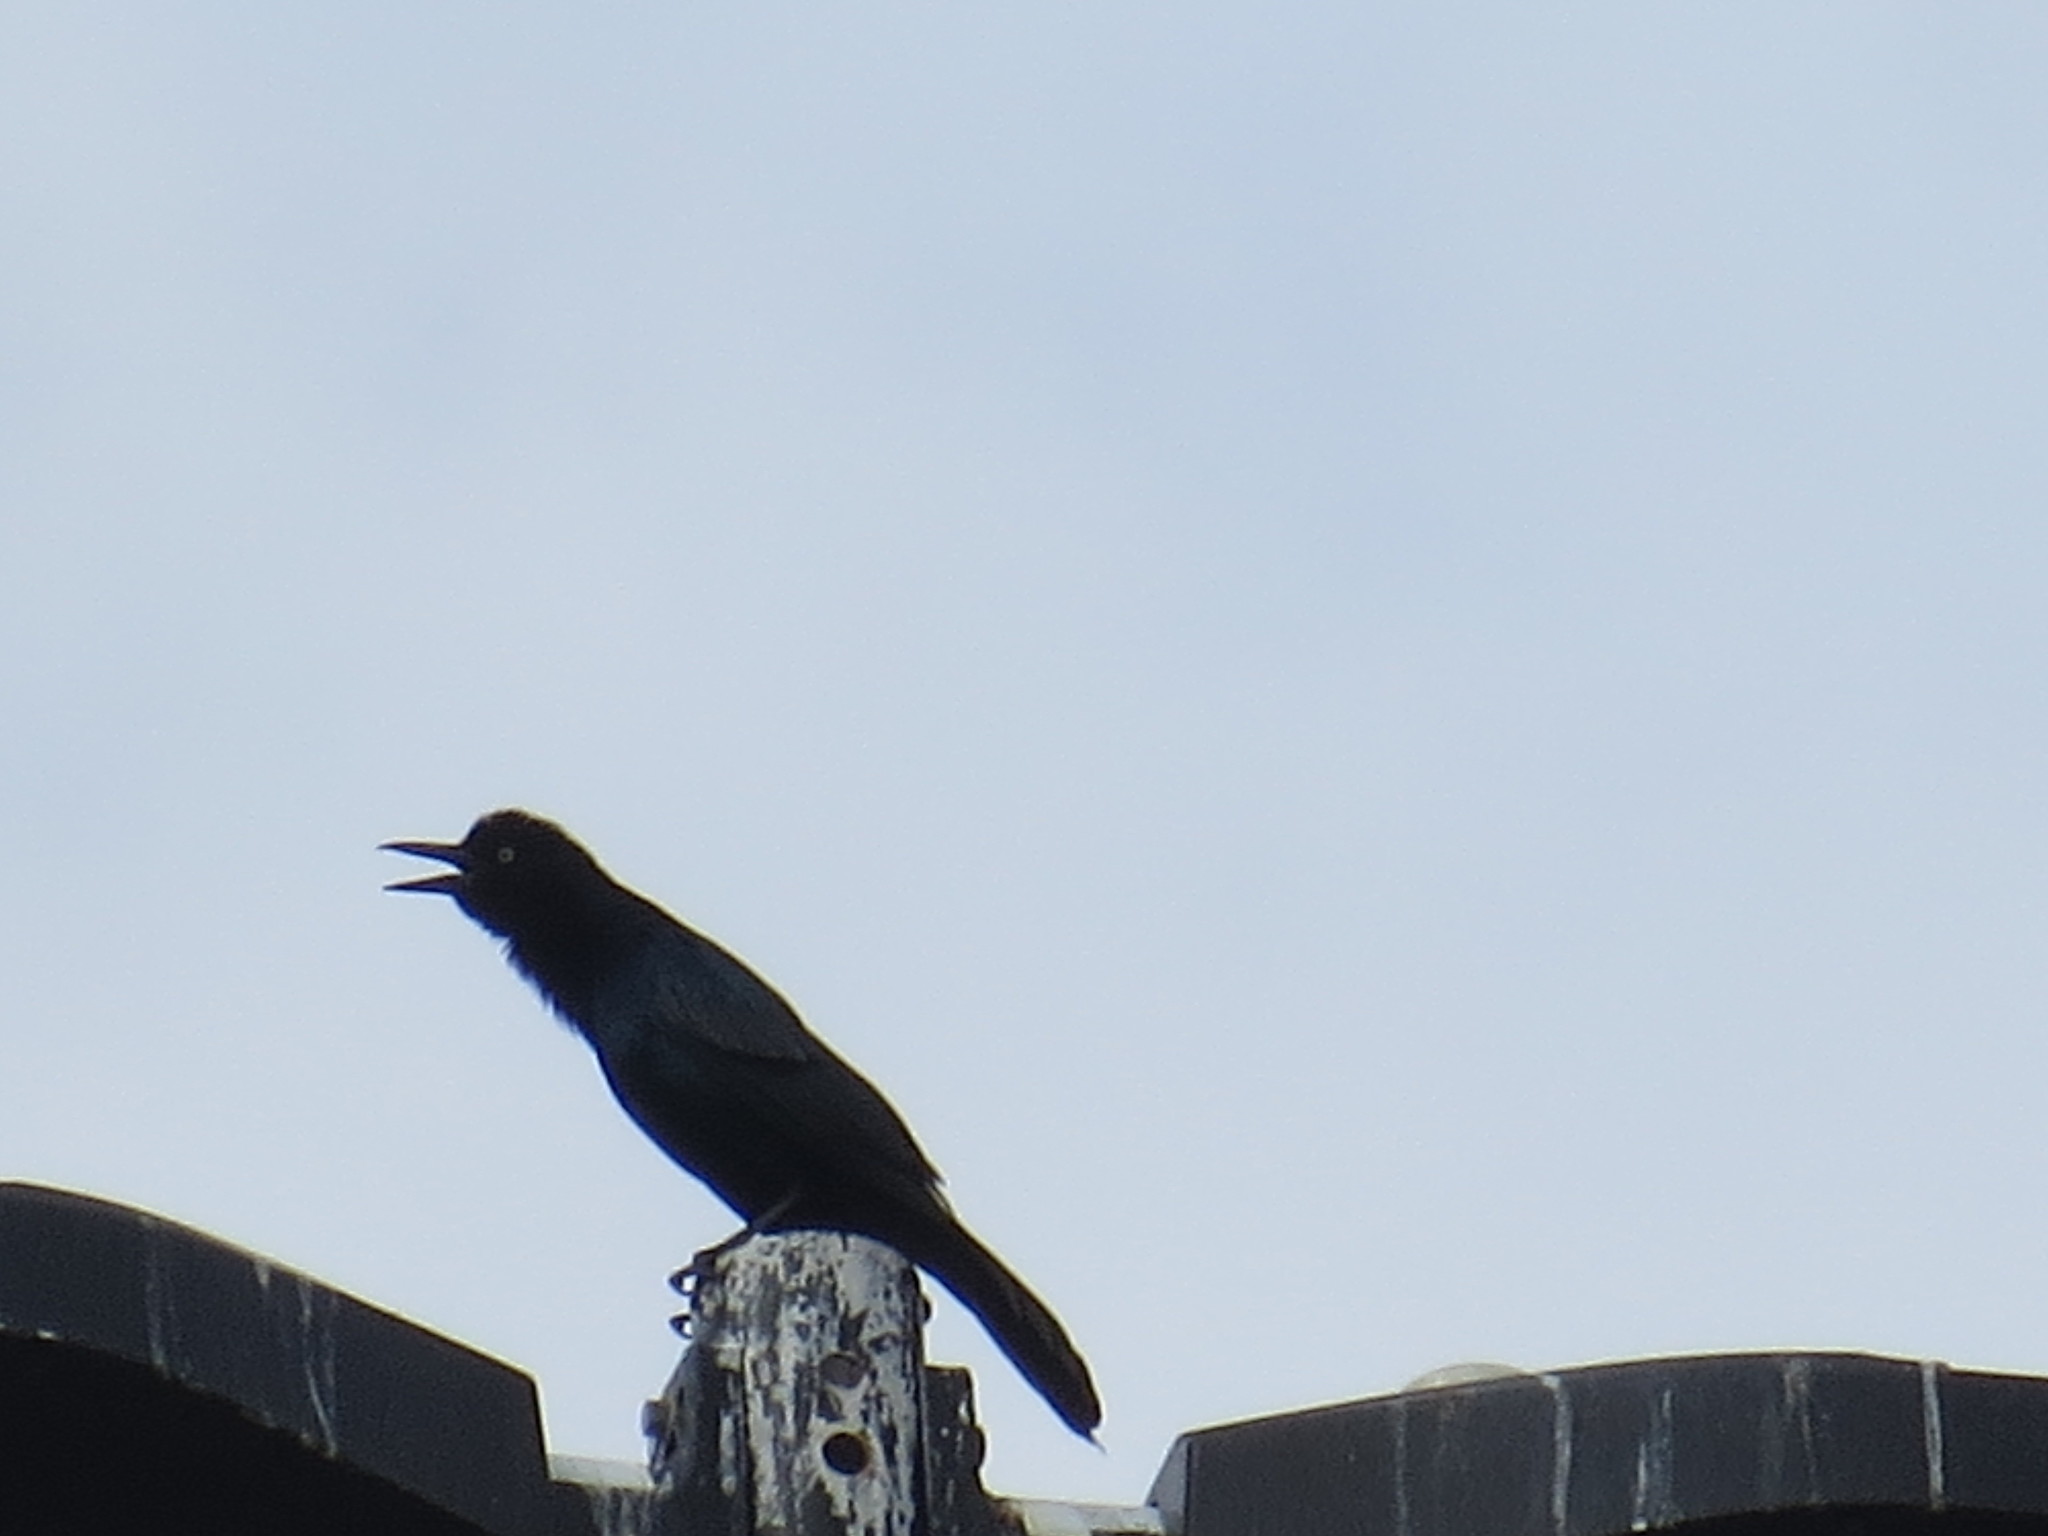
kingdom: Animalia
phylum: Chordata
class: Aves
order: Passeriformes
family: Icteridae
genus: Quiscalus
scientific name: Quiscalus major
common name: Boat-tailed grackle
